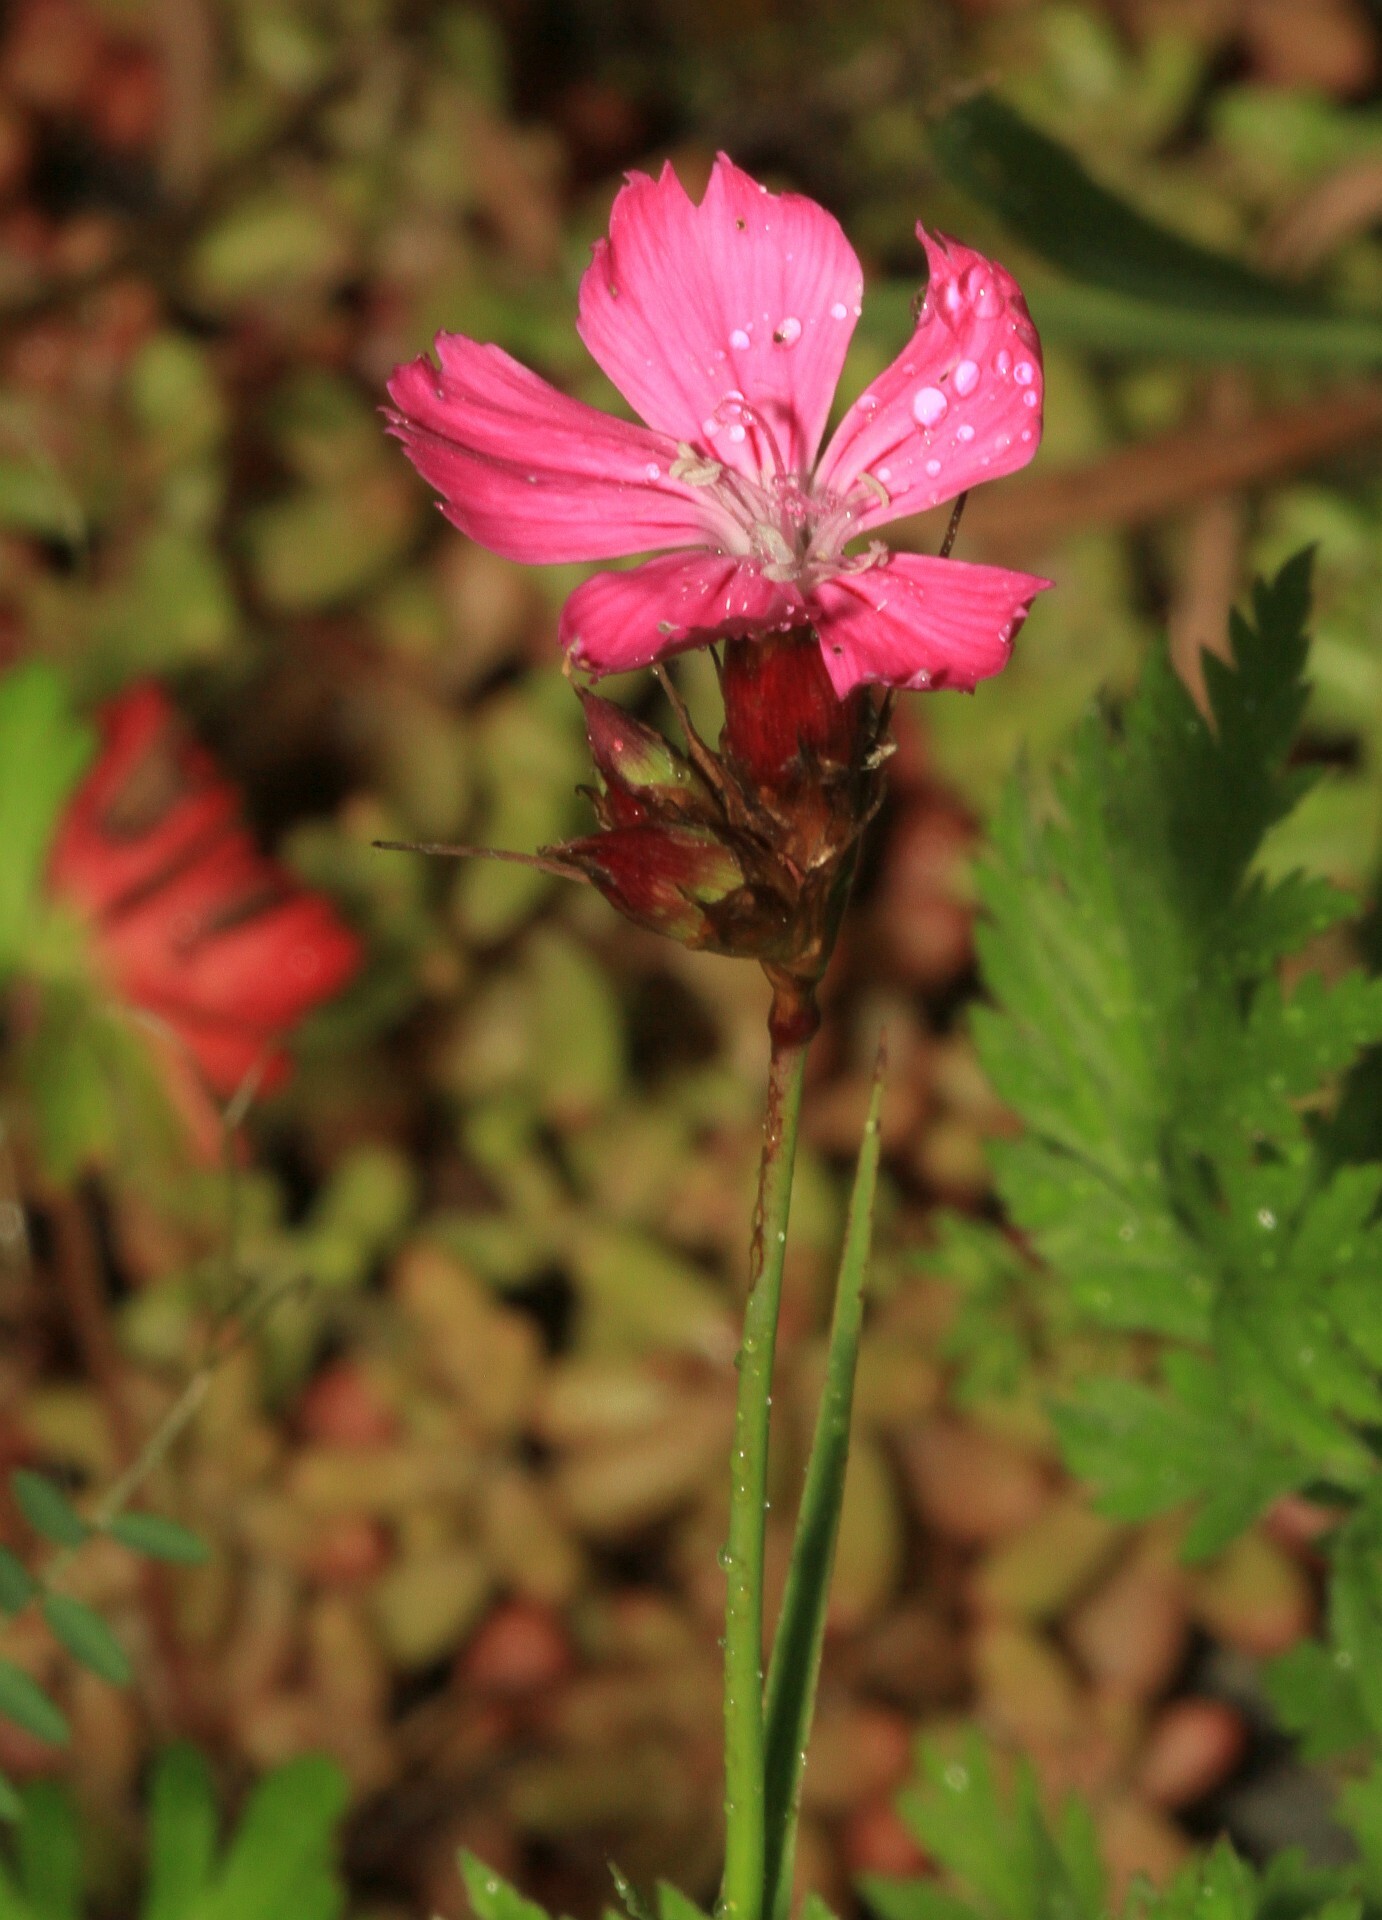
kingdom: Plantae
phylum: Tracheophyta
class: Magnoliopsida
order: Caryophyllales
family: Caryophyllaceae
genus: Dianthus
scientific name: Dianthus carthusianorum
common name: Carthusian pink
